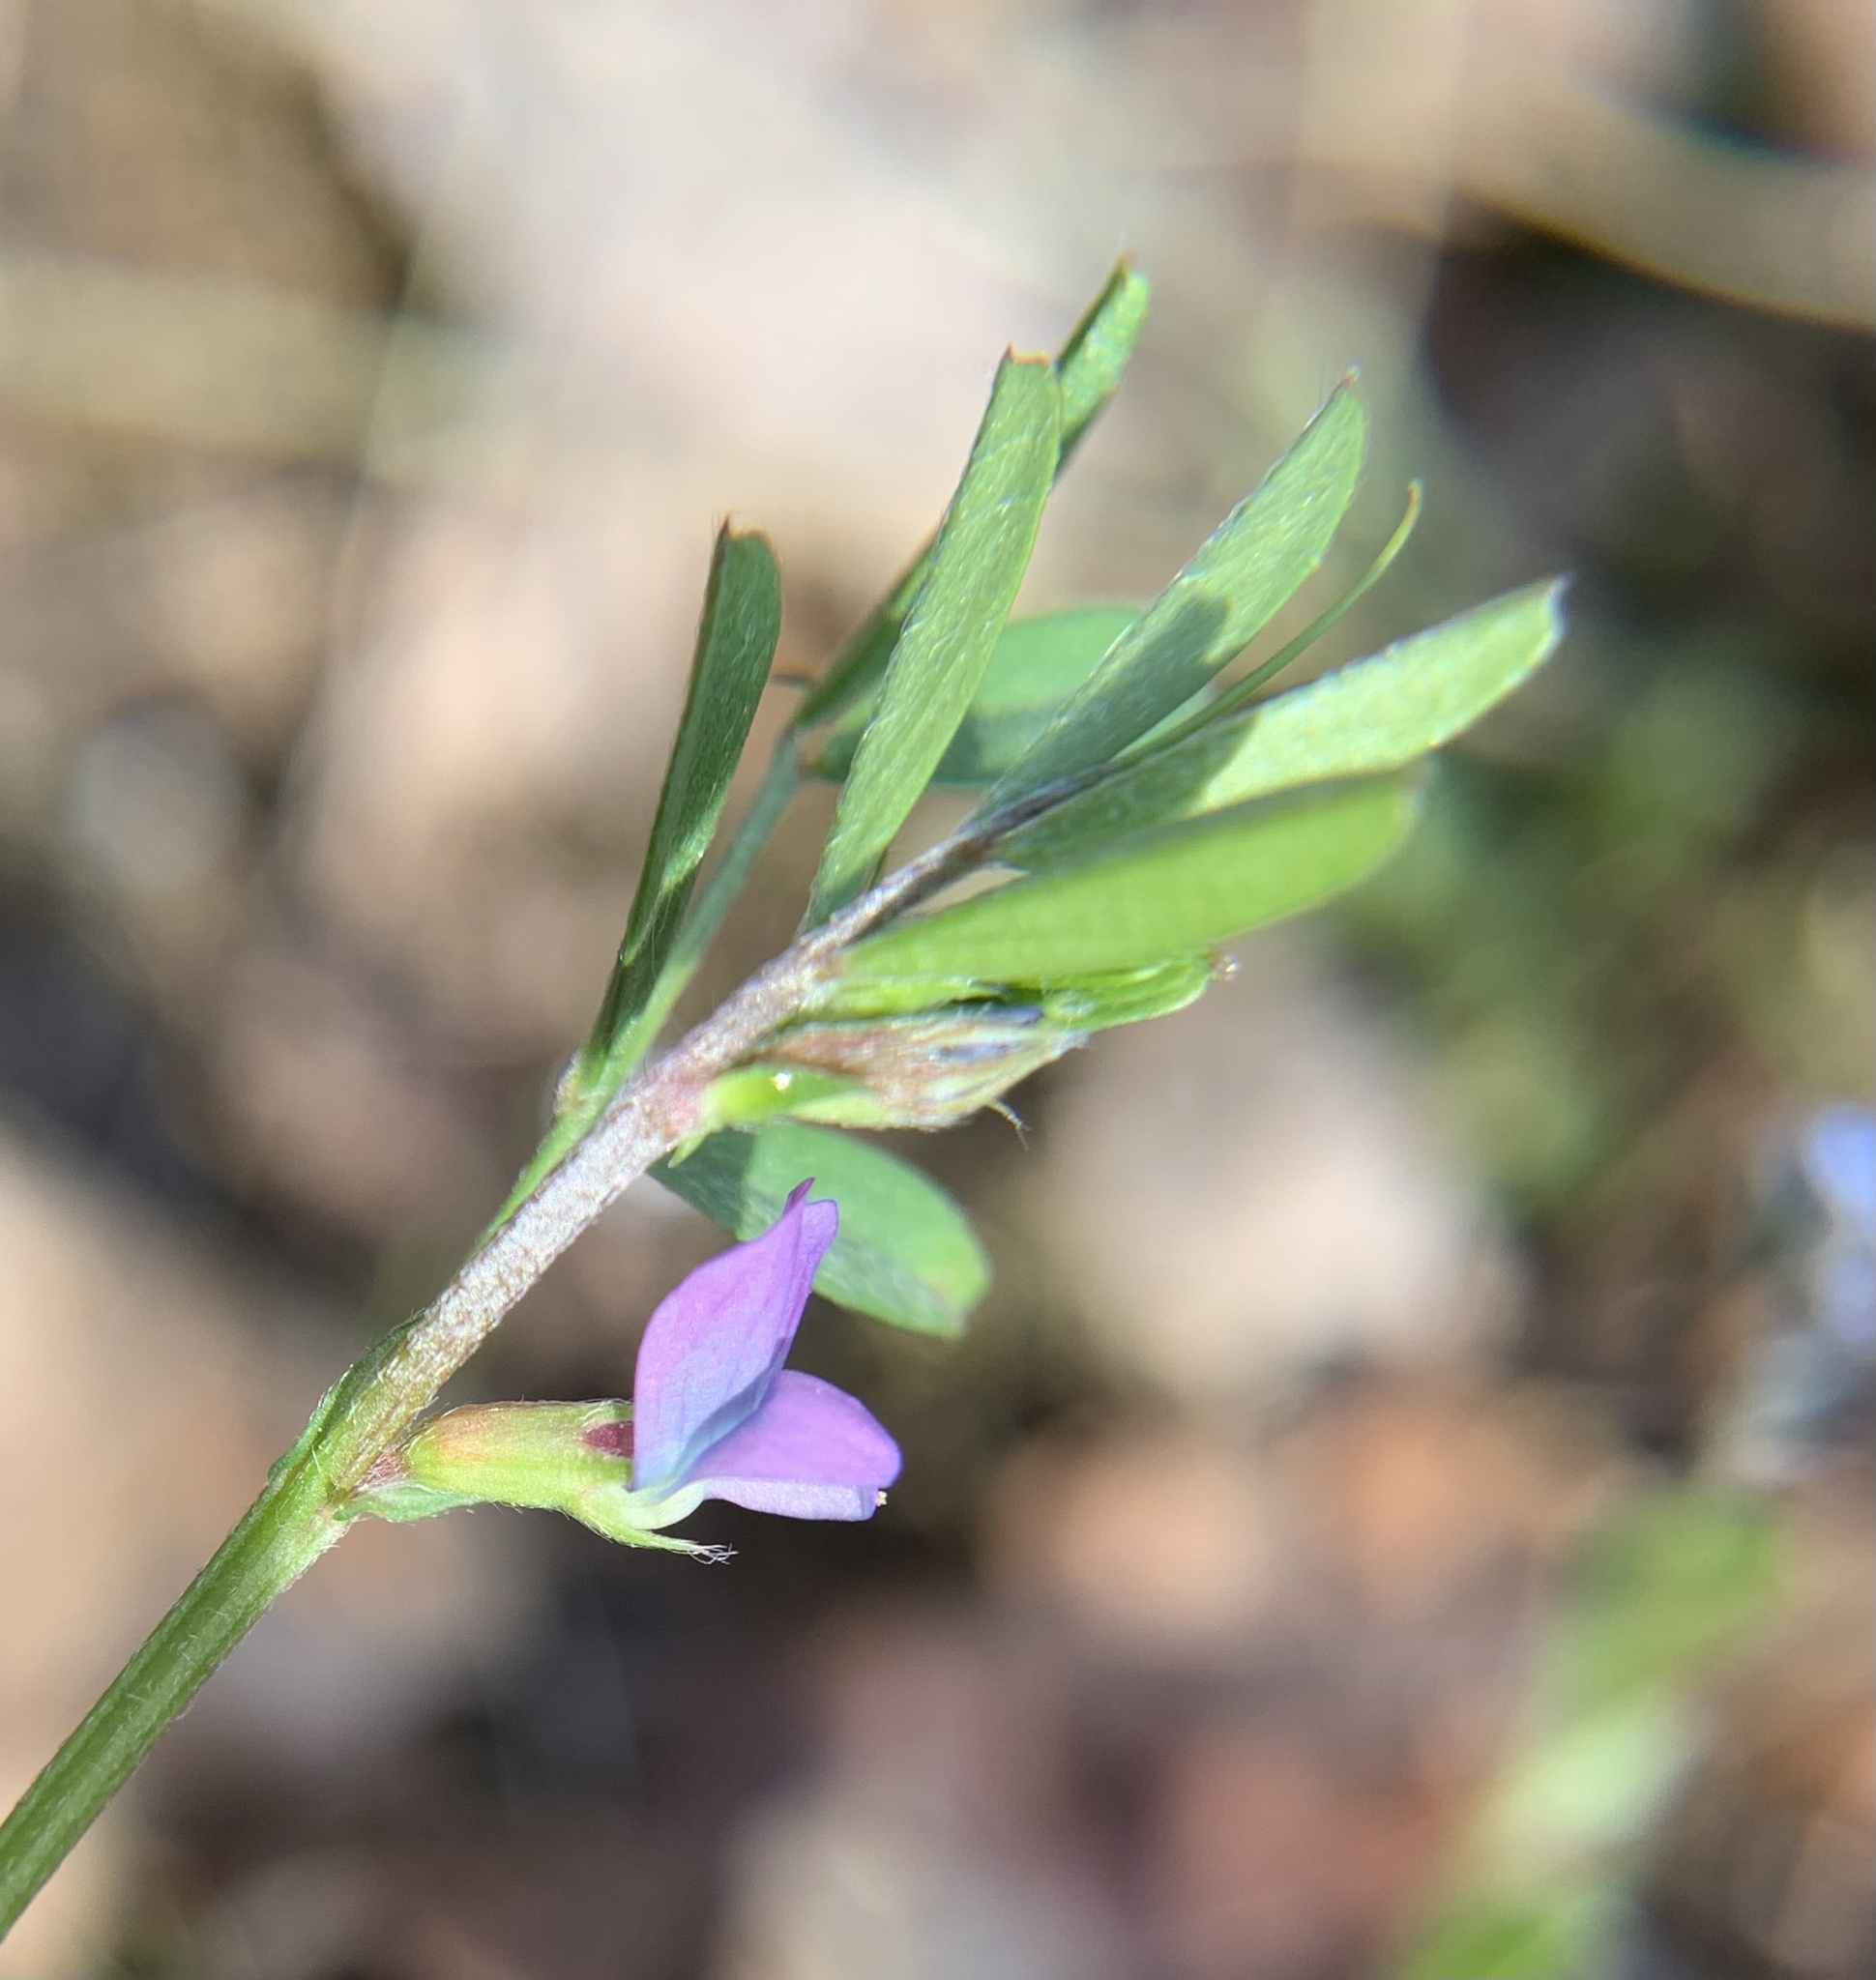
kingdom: Plantae
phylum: Tracheophyta
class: Magnoliopsida
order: Fabales
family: Fabaceae
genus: Vicia
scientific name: Vicia lathyroides
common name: Spring vetch
